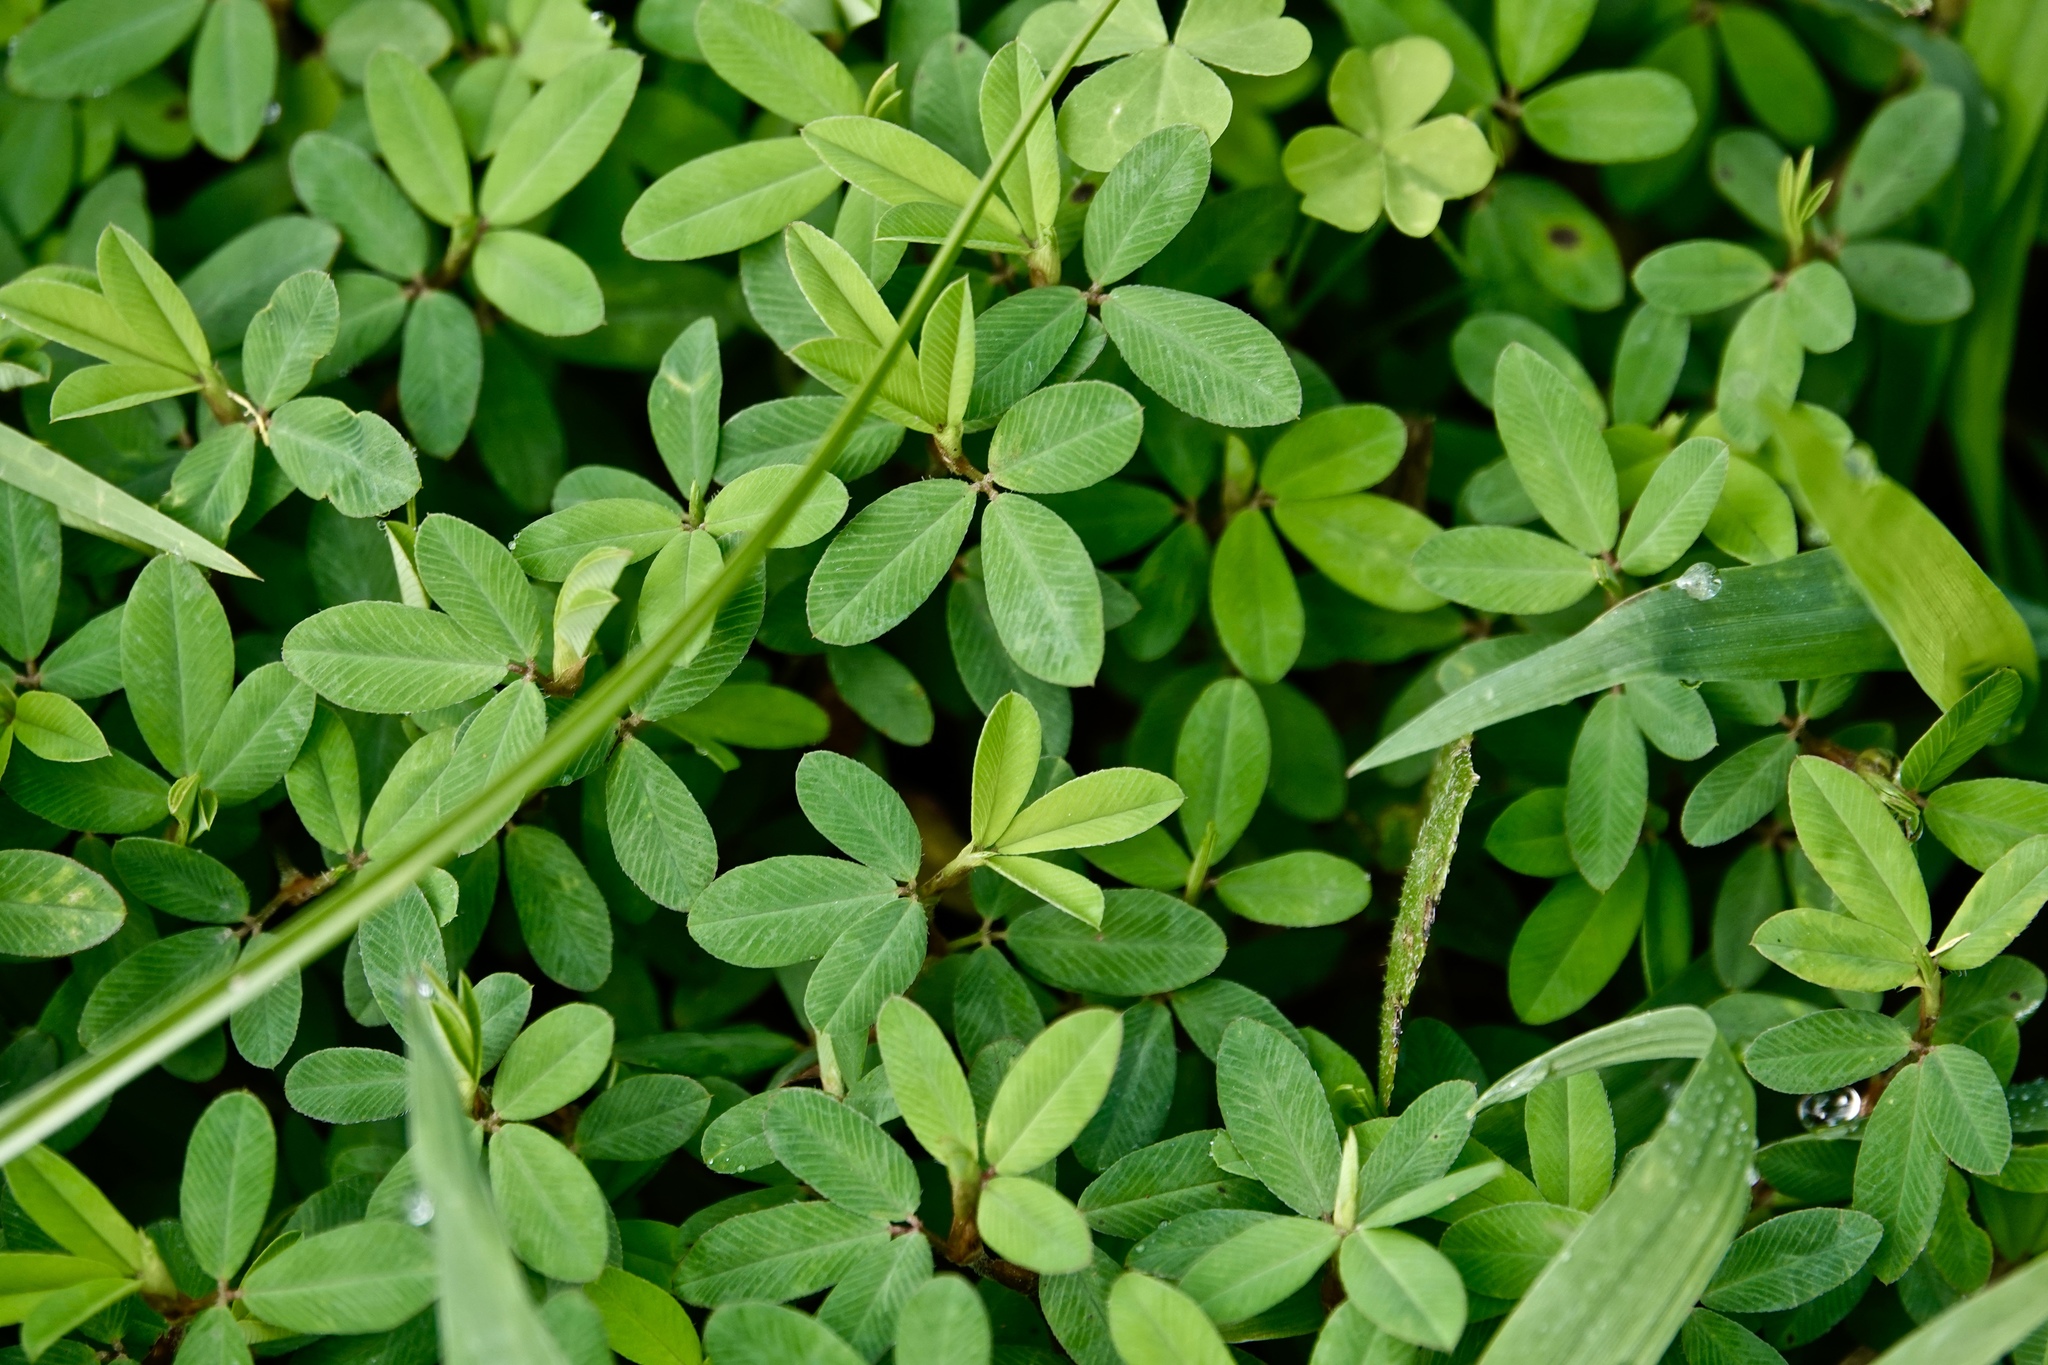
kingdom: Plantae
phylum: Tracheophyta
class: Magnoliopsida
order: Fabales
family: Fabaceae
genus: Kummerowia
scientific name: Kummerowia striata
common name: Japanese clover
